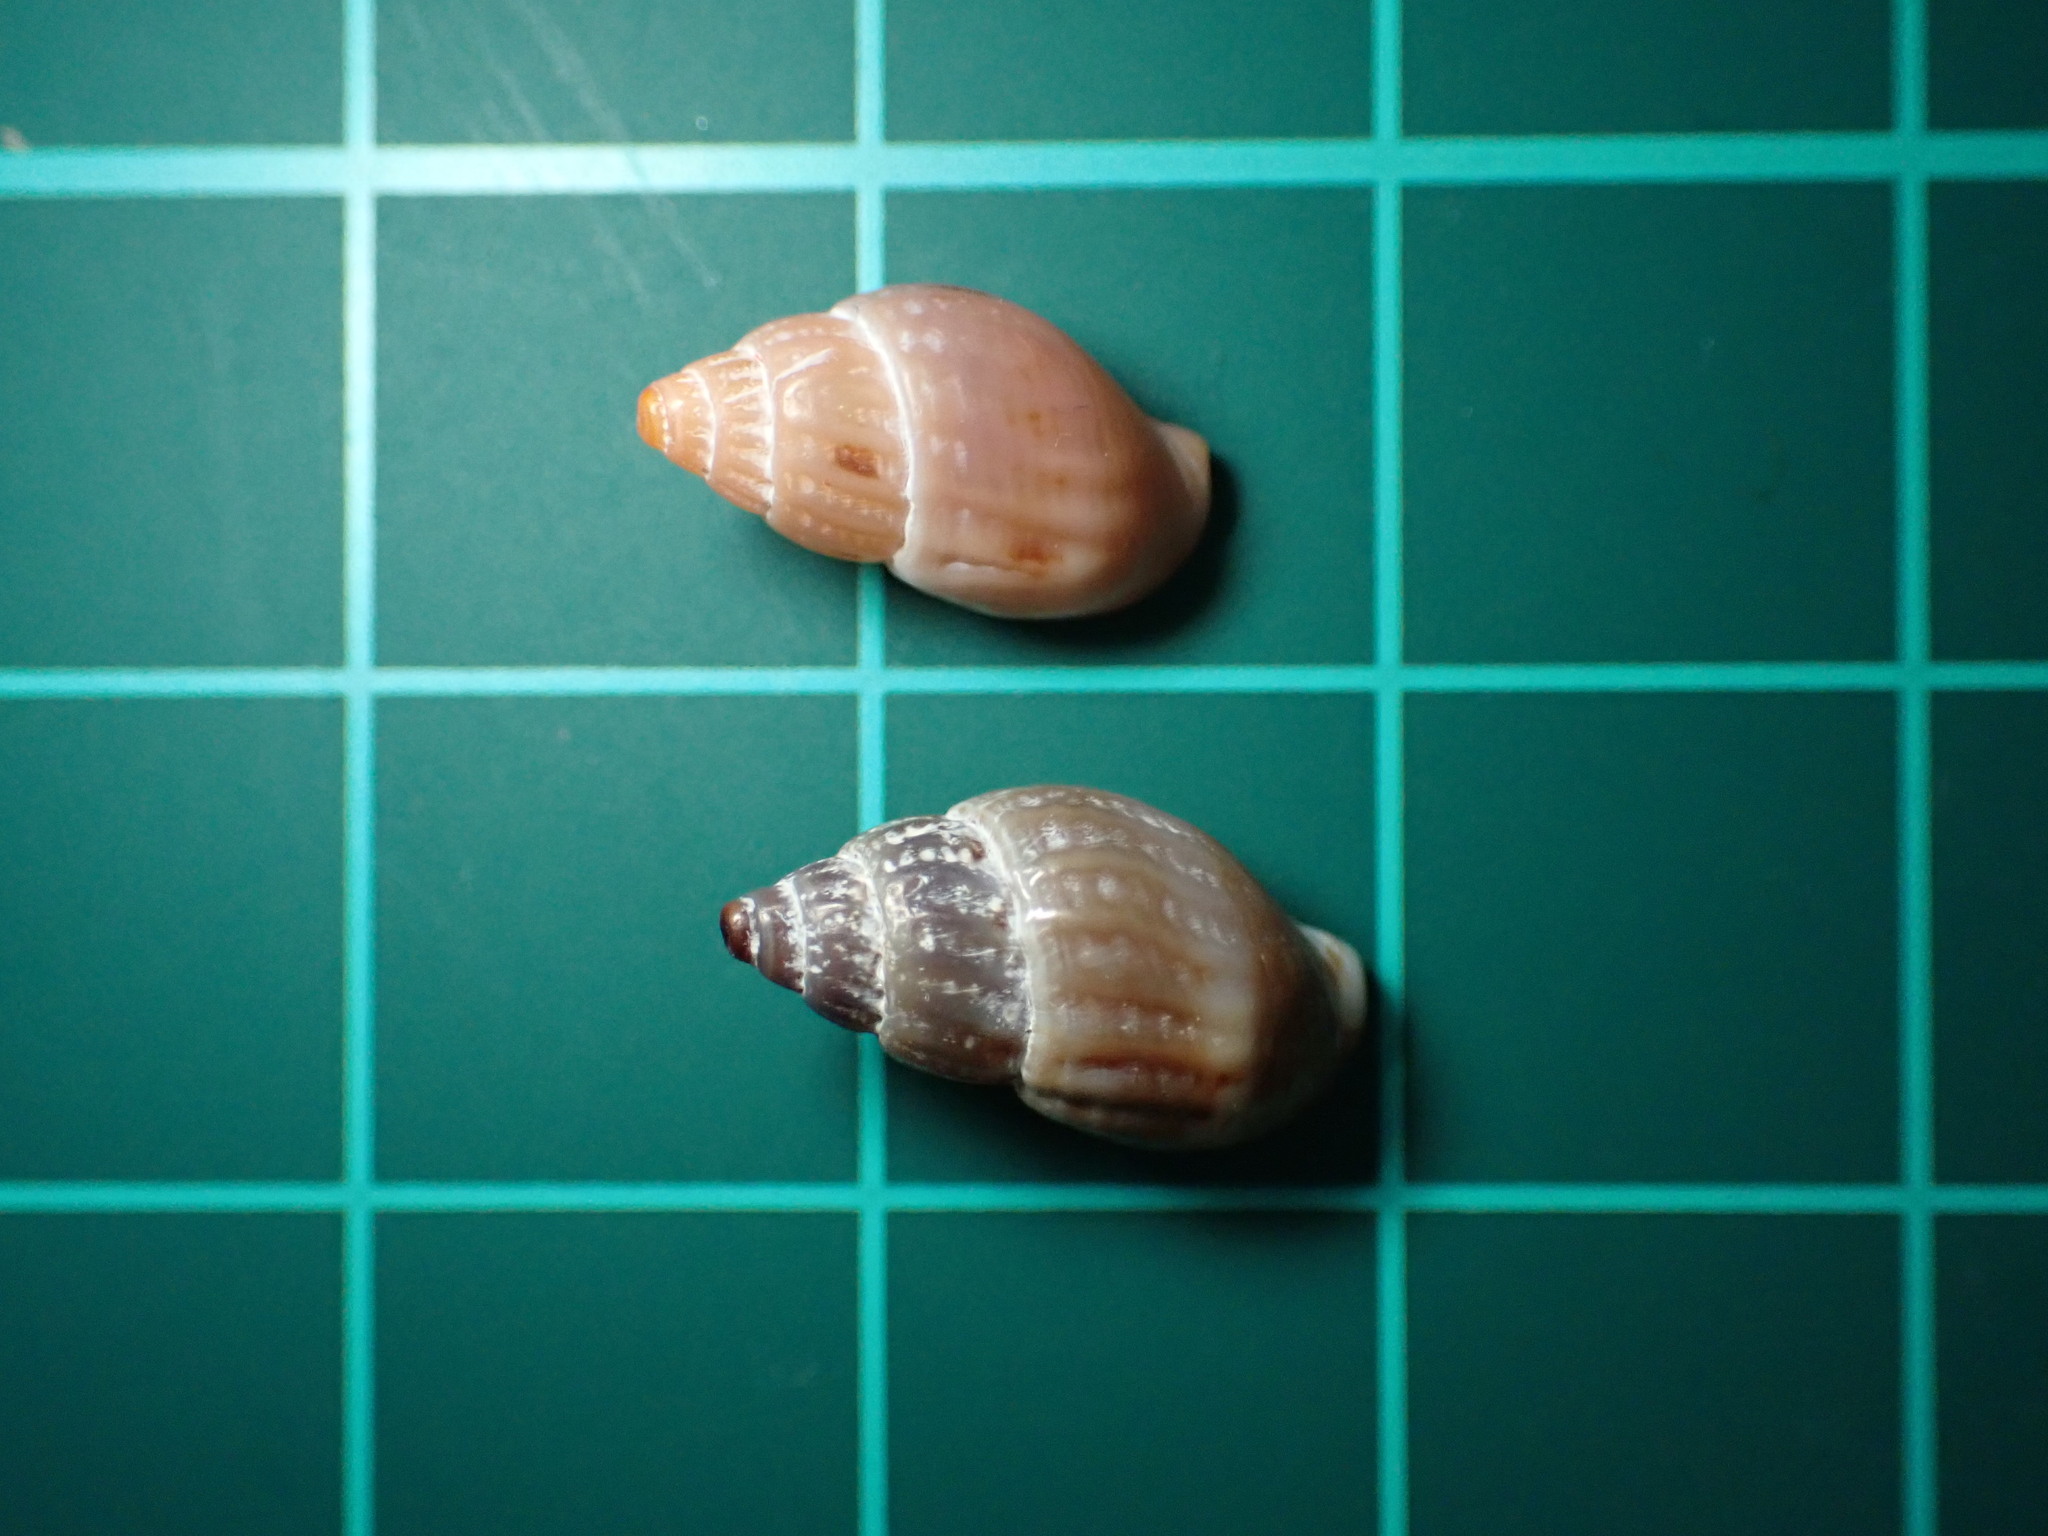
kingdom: Animalia
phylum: Mollusca
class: Gastropoda
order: Neogastropoda
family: Columbellidae
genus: Amphissa
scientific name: Amphissa versicolor
